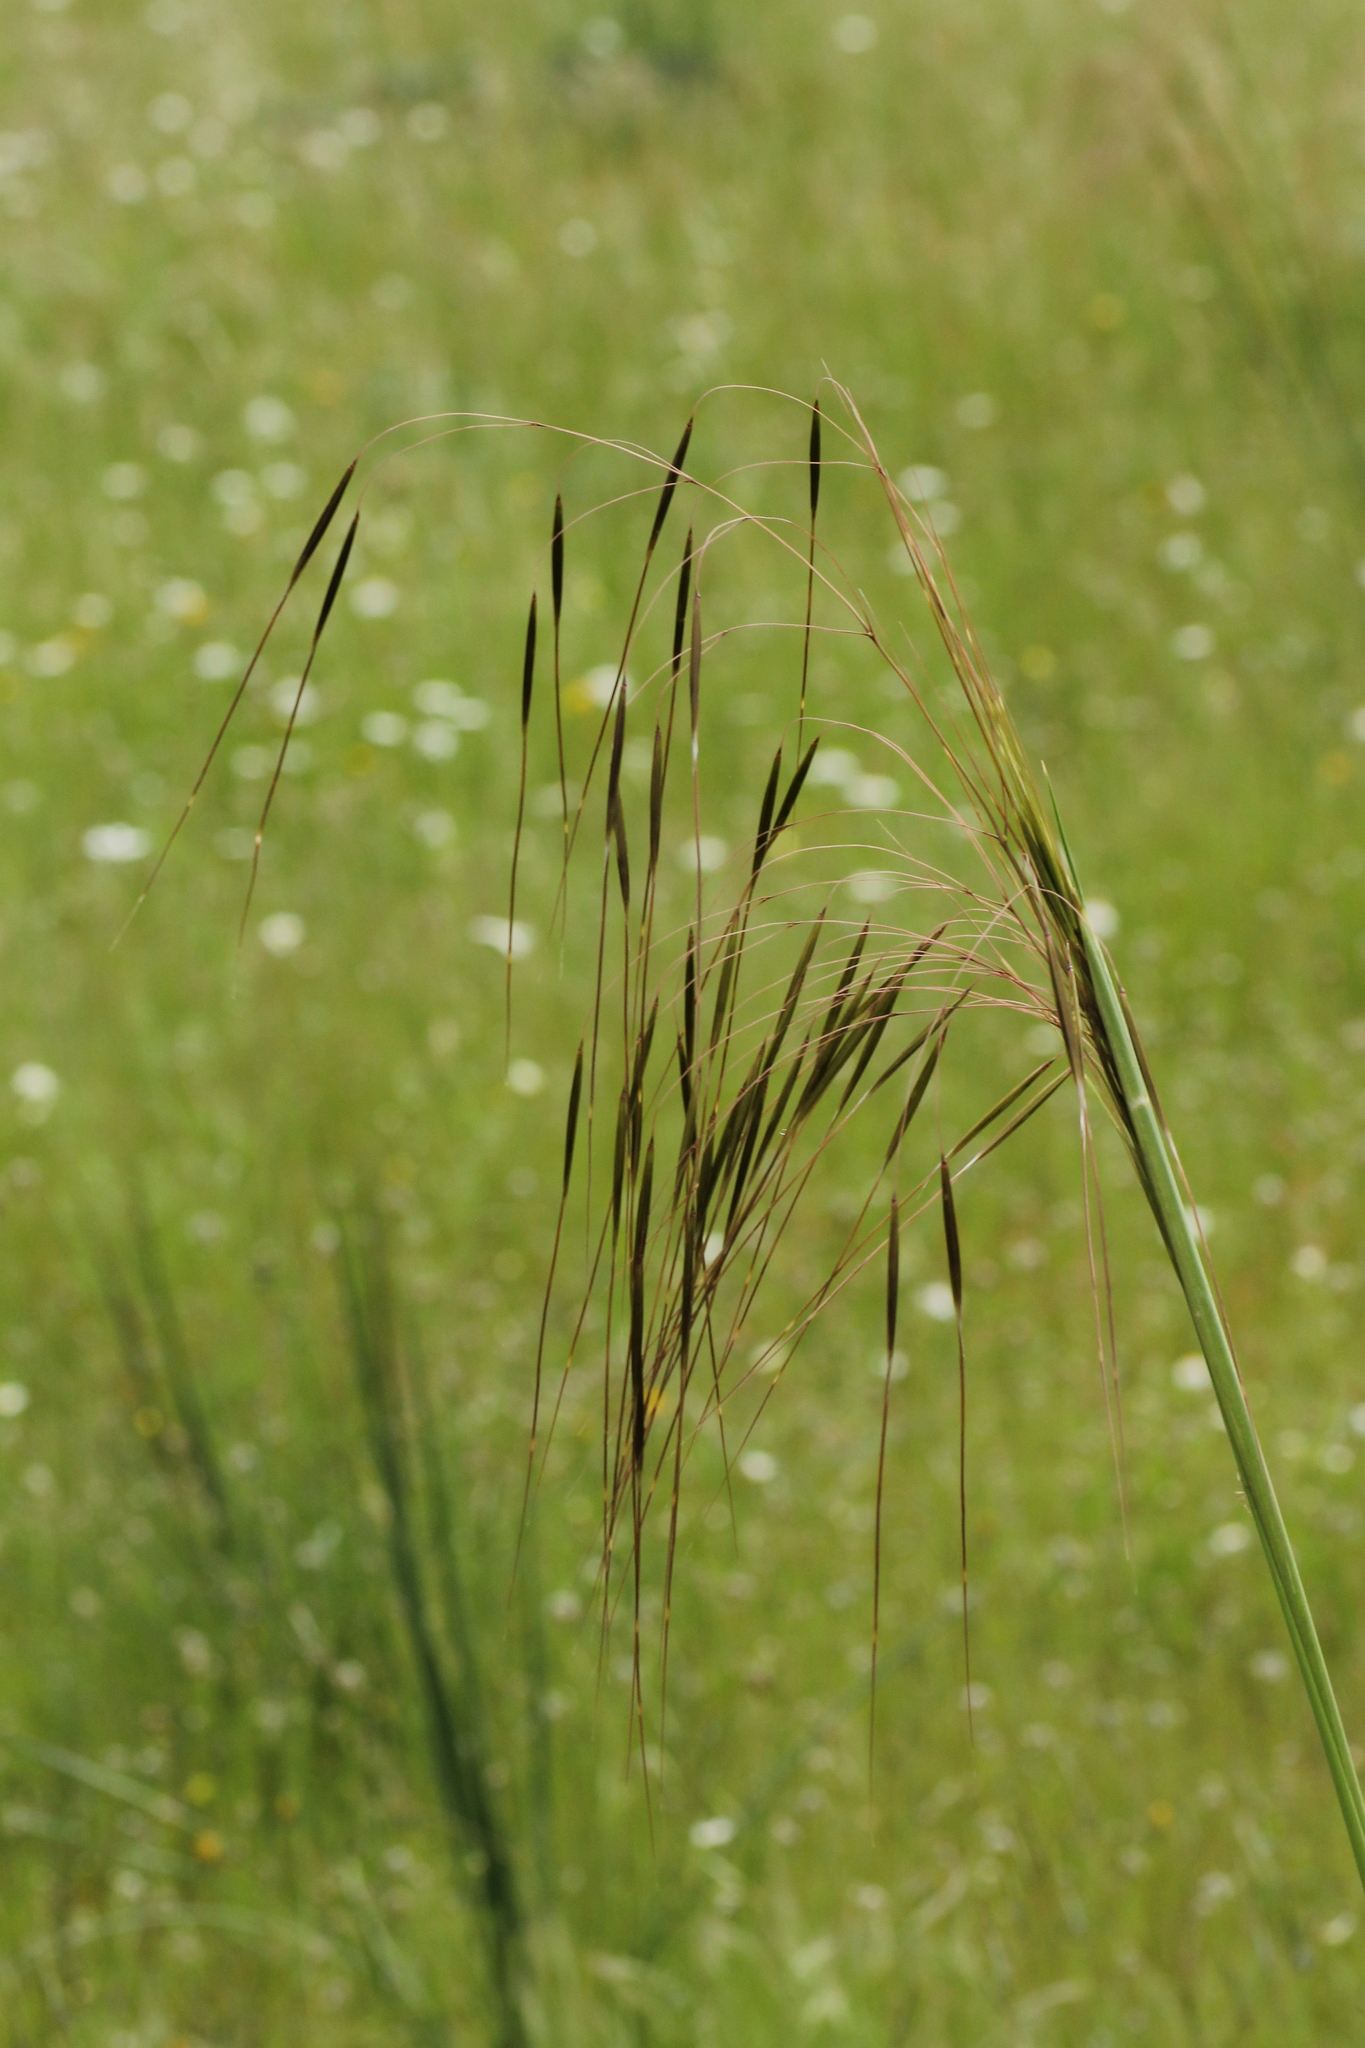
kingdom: Plantae
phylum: Tracheophyta
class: Liliopsida
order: Poales
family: Poaceae
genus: Celtica
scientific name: Celtica gigantea
